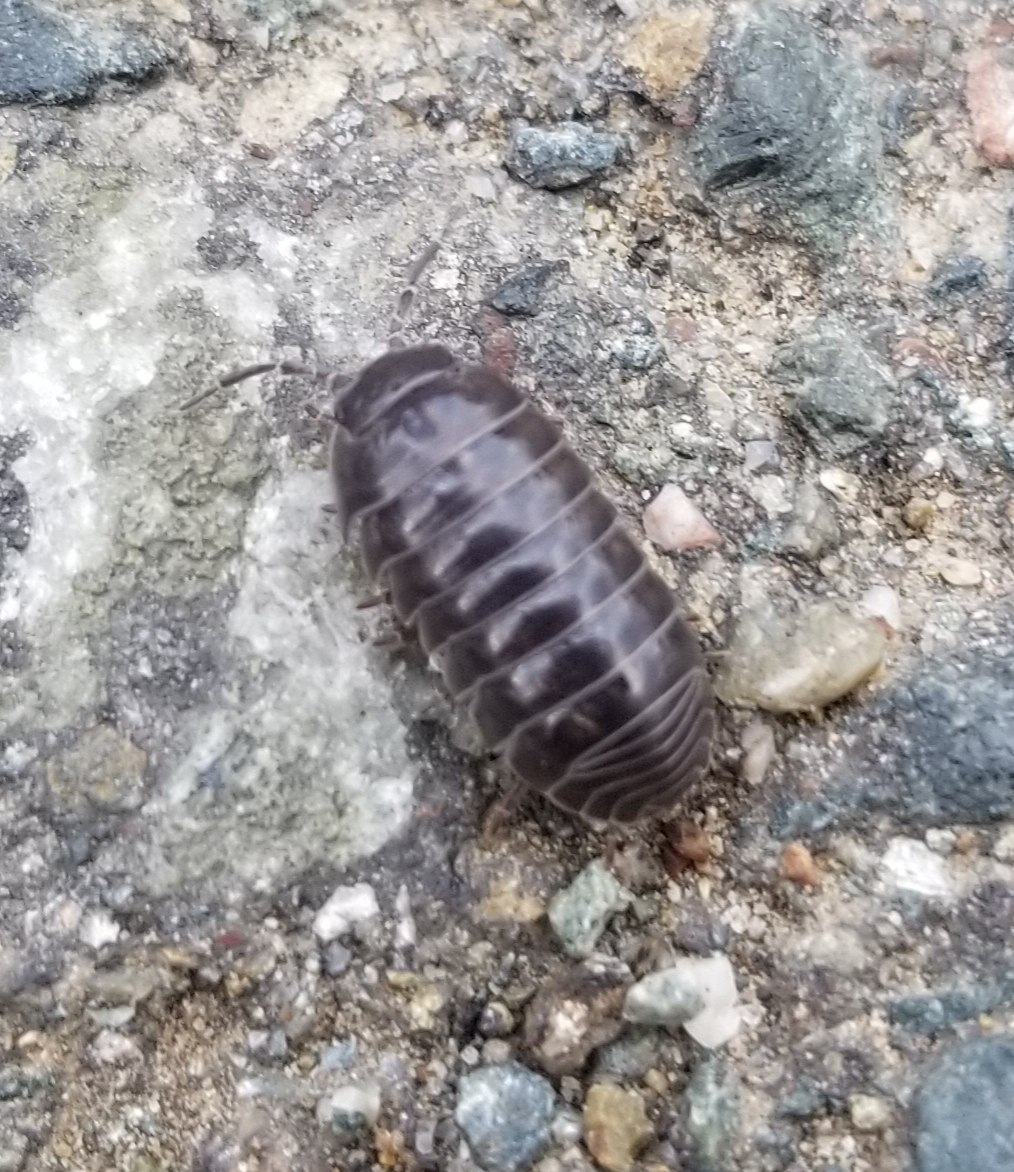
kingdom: Animalia
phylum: Arthropoda
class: Malacostraca
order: Isopoda
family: Armadillidiidae
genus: Armadillidium
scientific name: Armadillidium vulgare
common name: Common pill woodlouse
